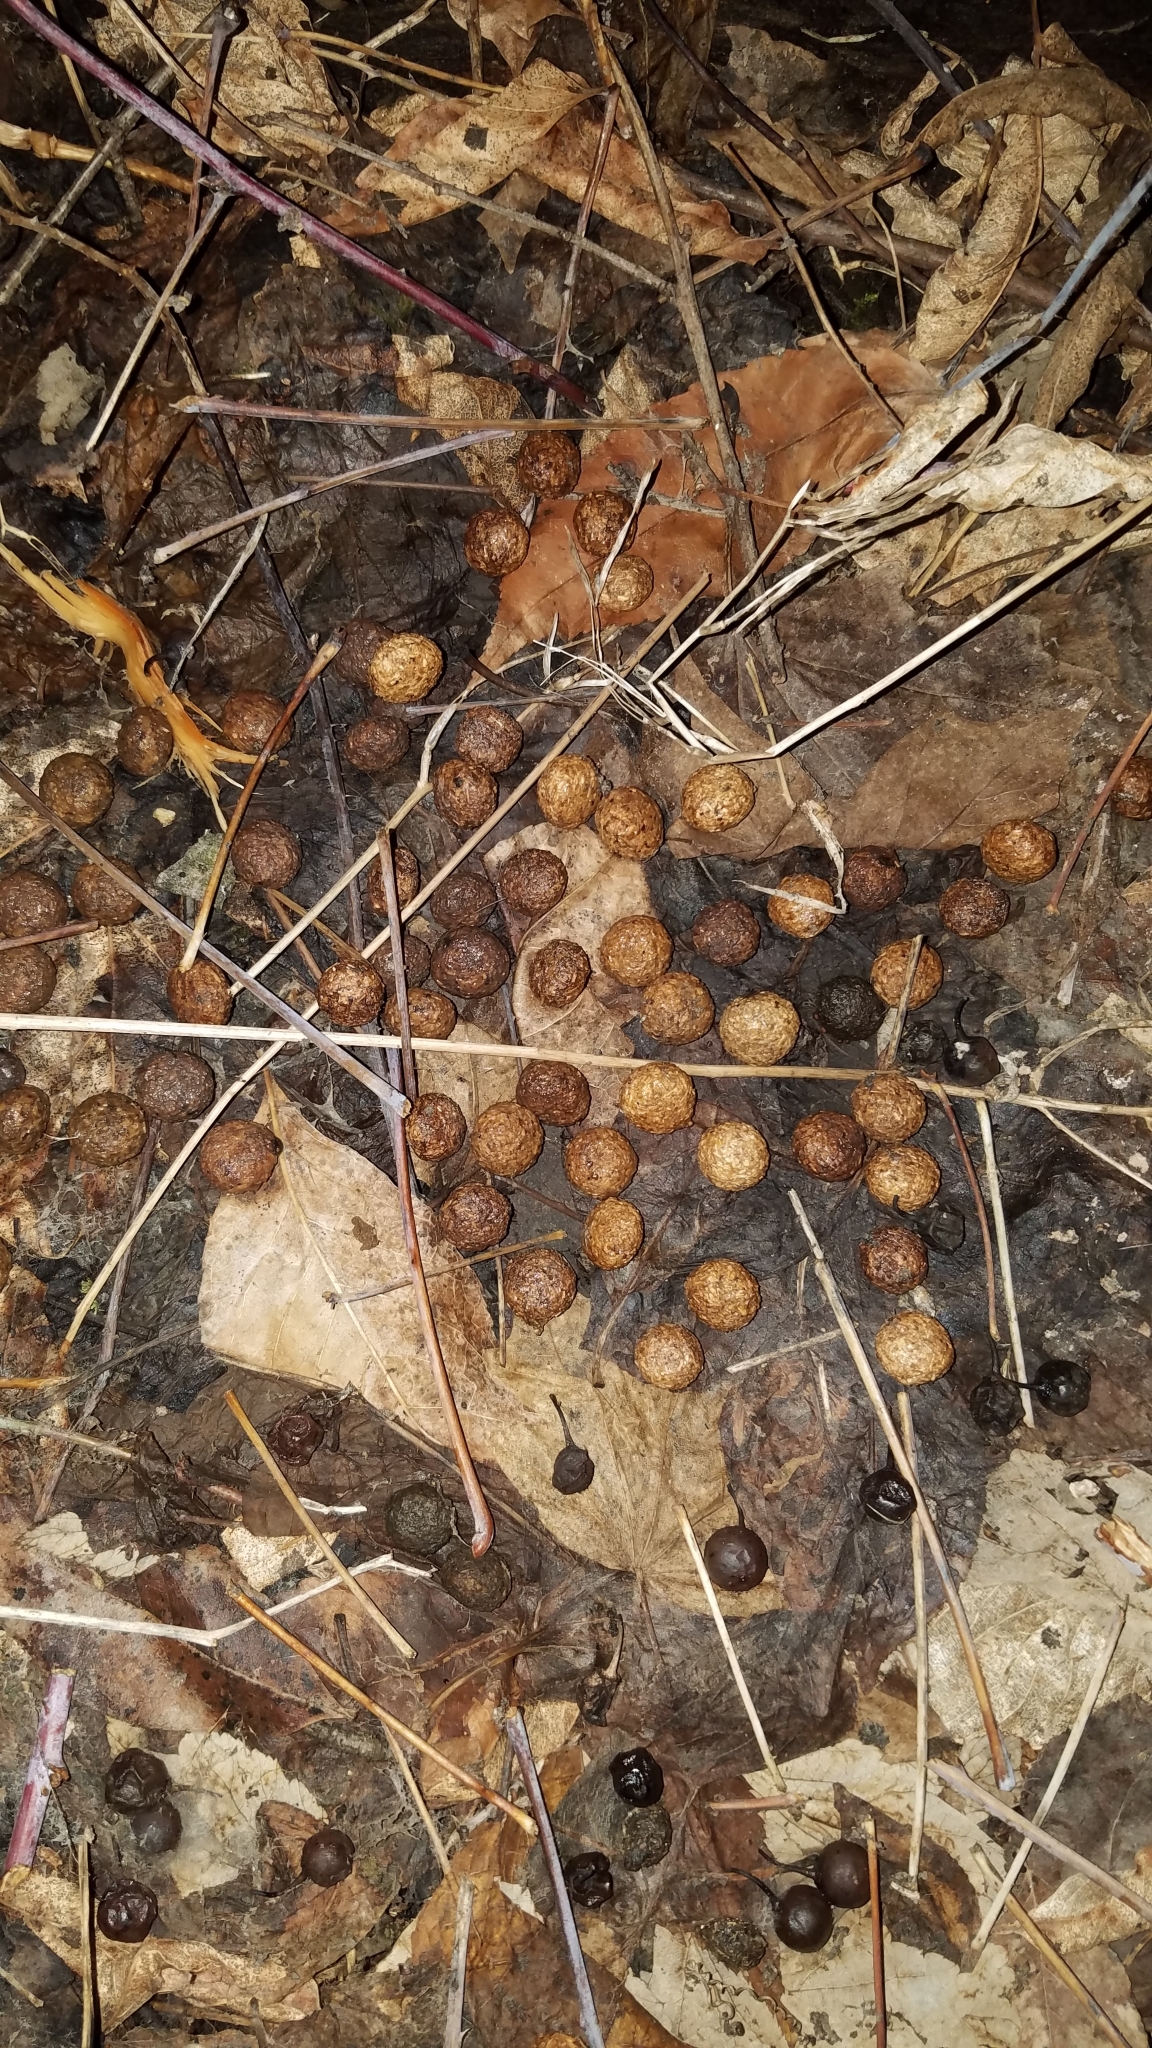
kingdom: Animalia
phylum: Chordata
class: Mammalia
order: Lagomorpha
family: Leporidae
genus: Sylvilagus
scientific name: Sylvilagus floridanus
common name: Eastern cottontail
